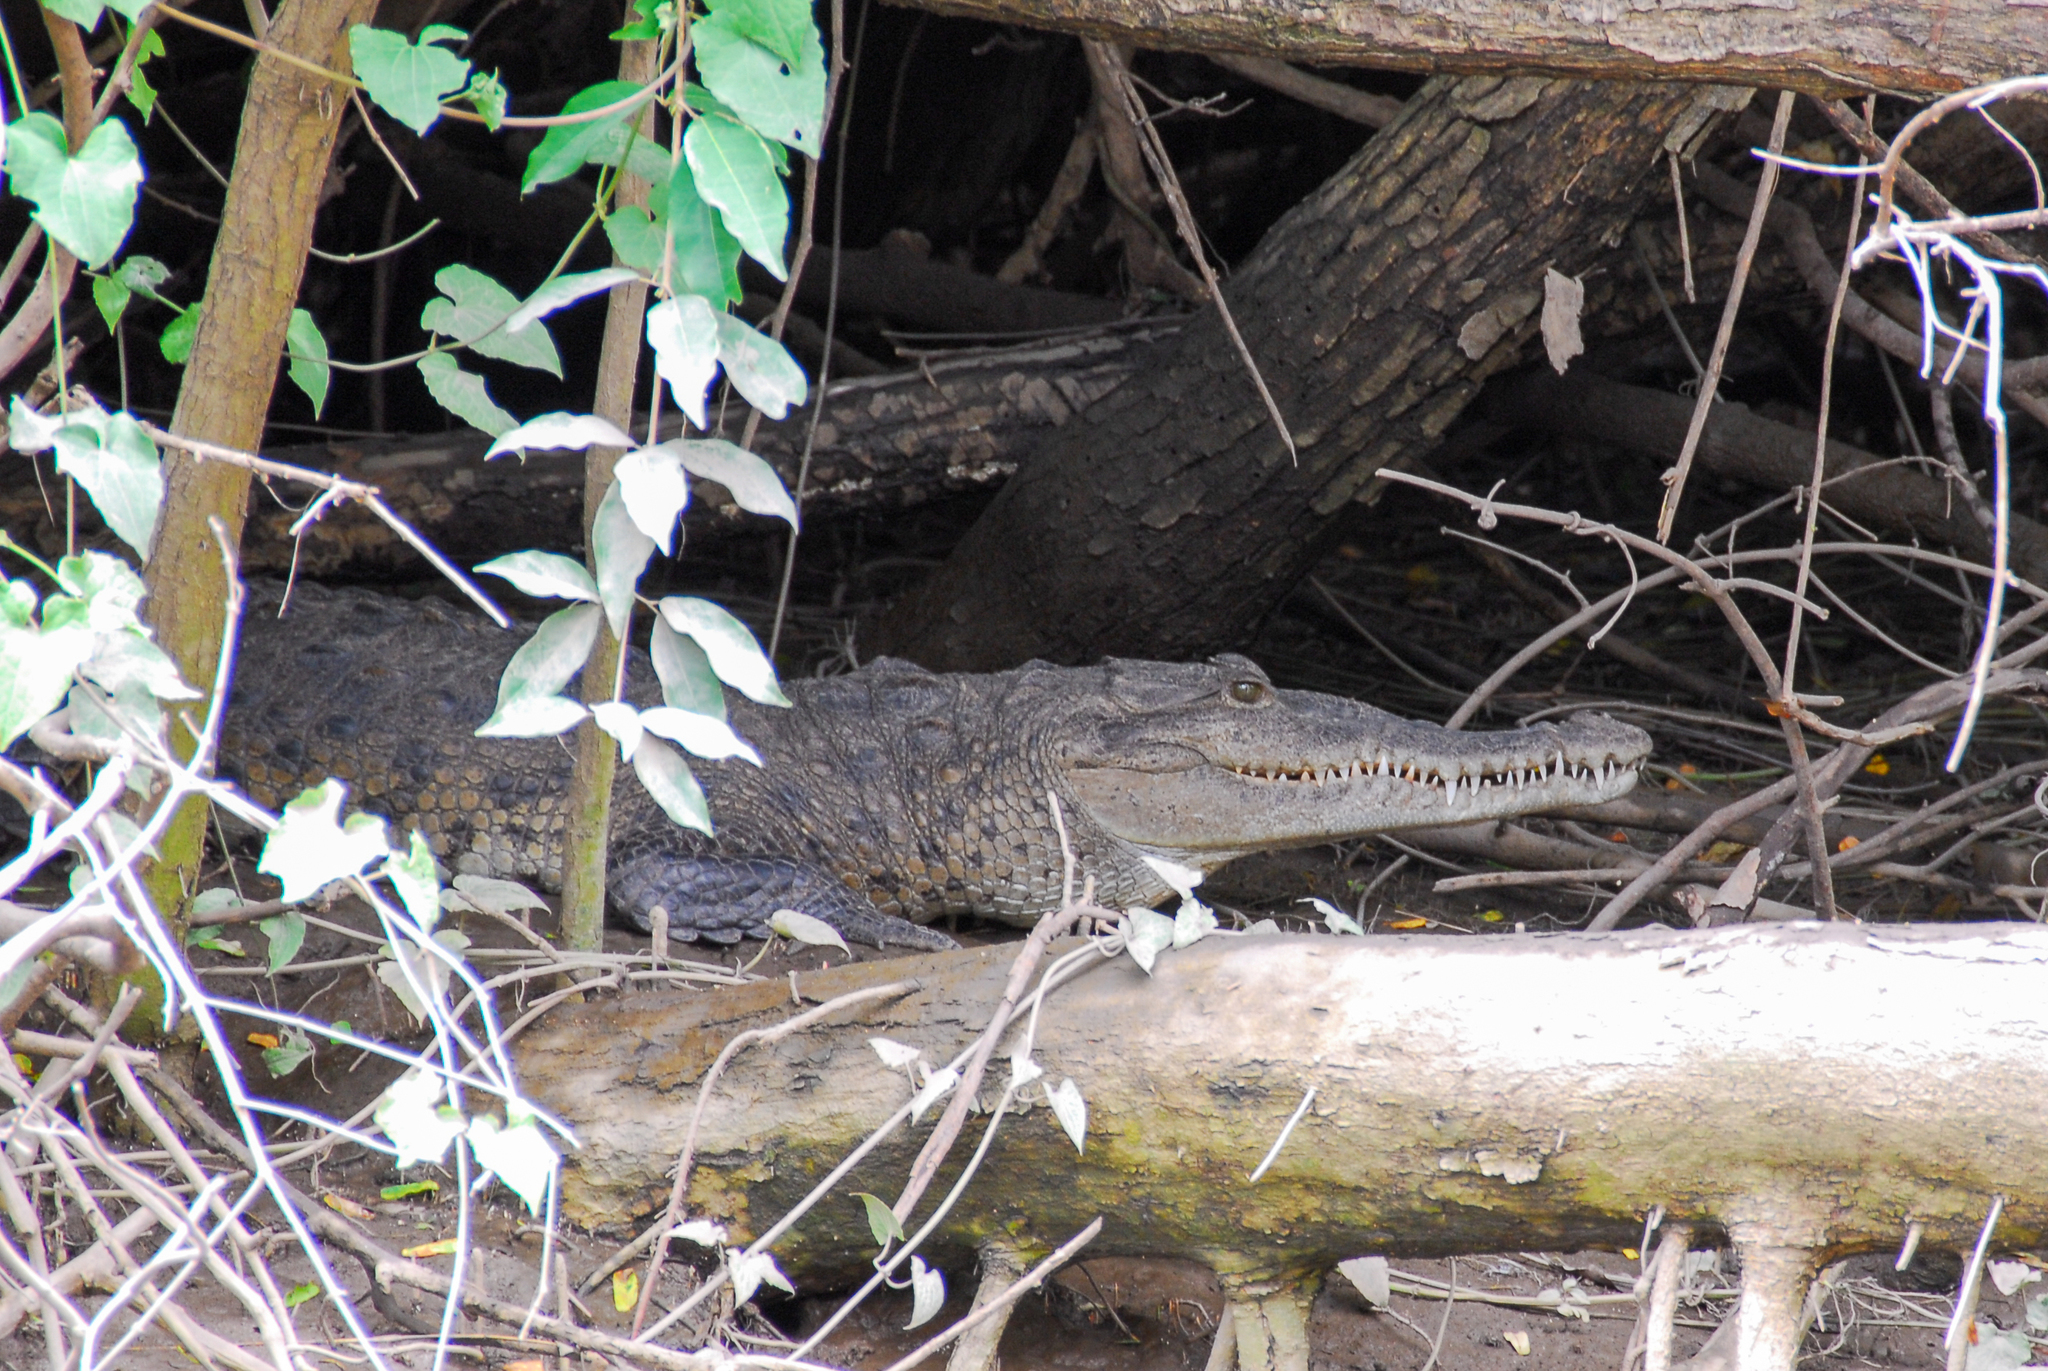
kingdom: Animalia
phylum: Chordata
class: Crocodylia
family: Crocodylidae
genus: Crocodylus
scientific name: Crocodylus acutus
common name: American crocodile
